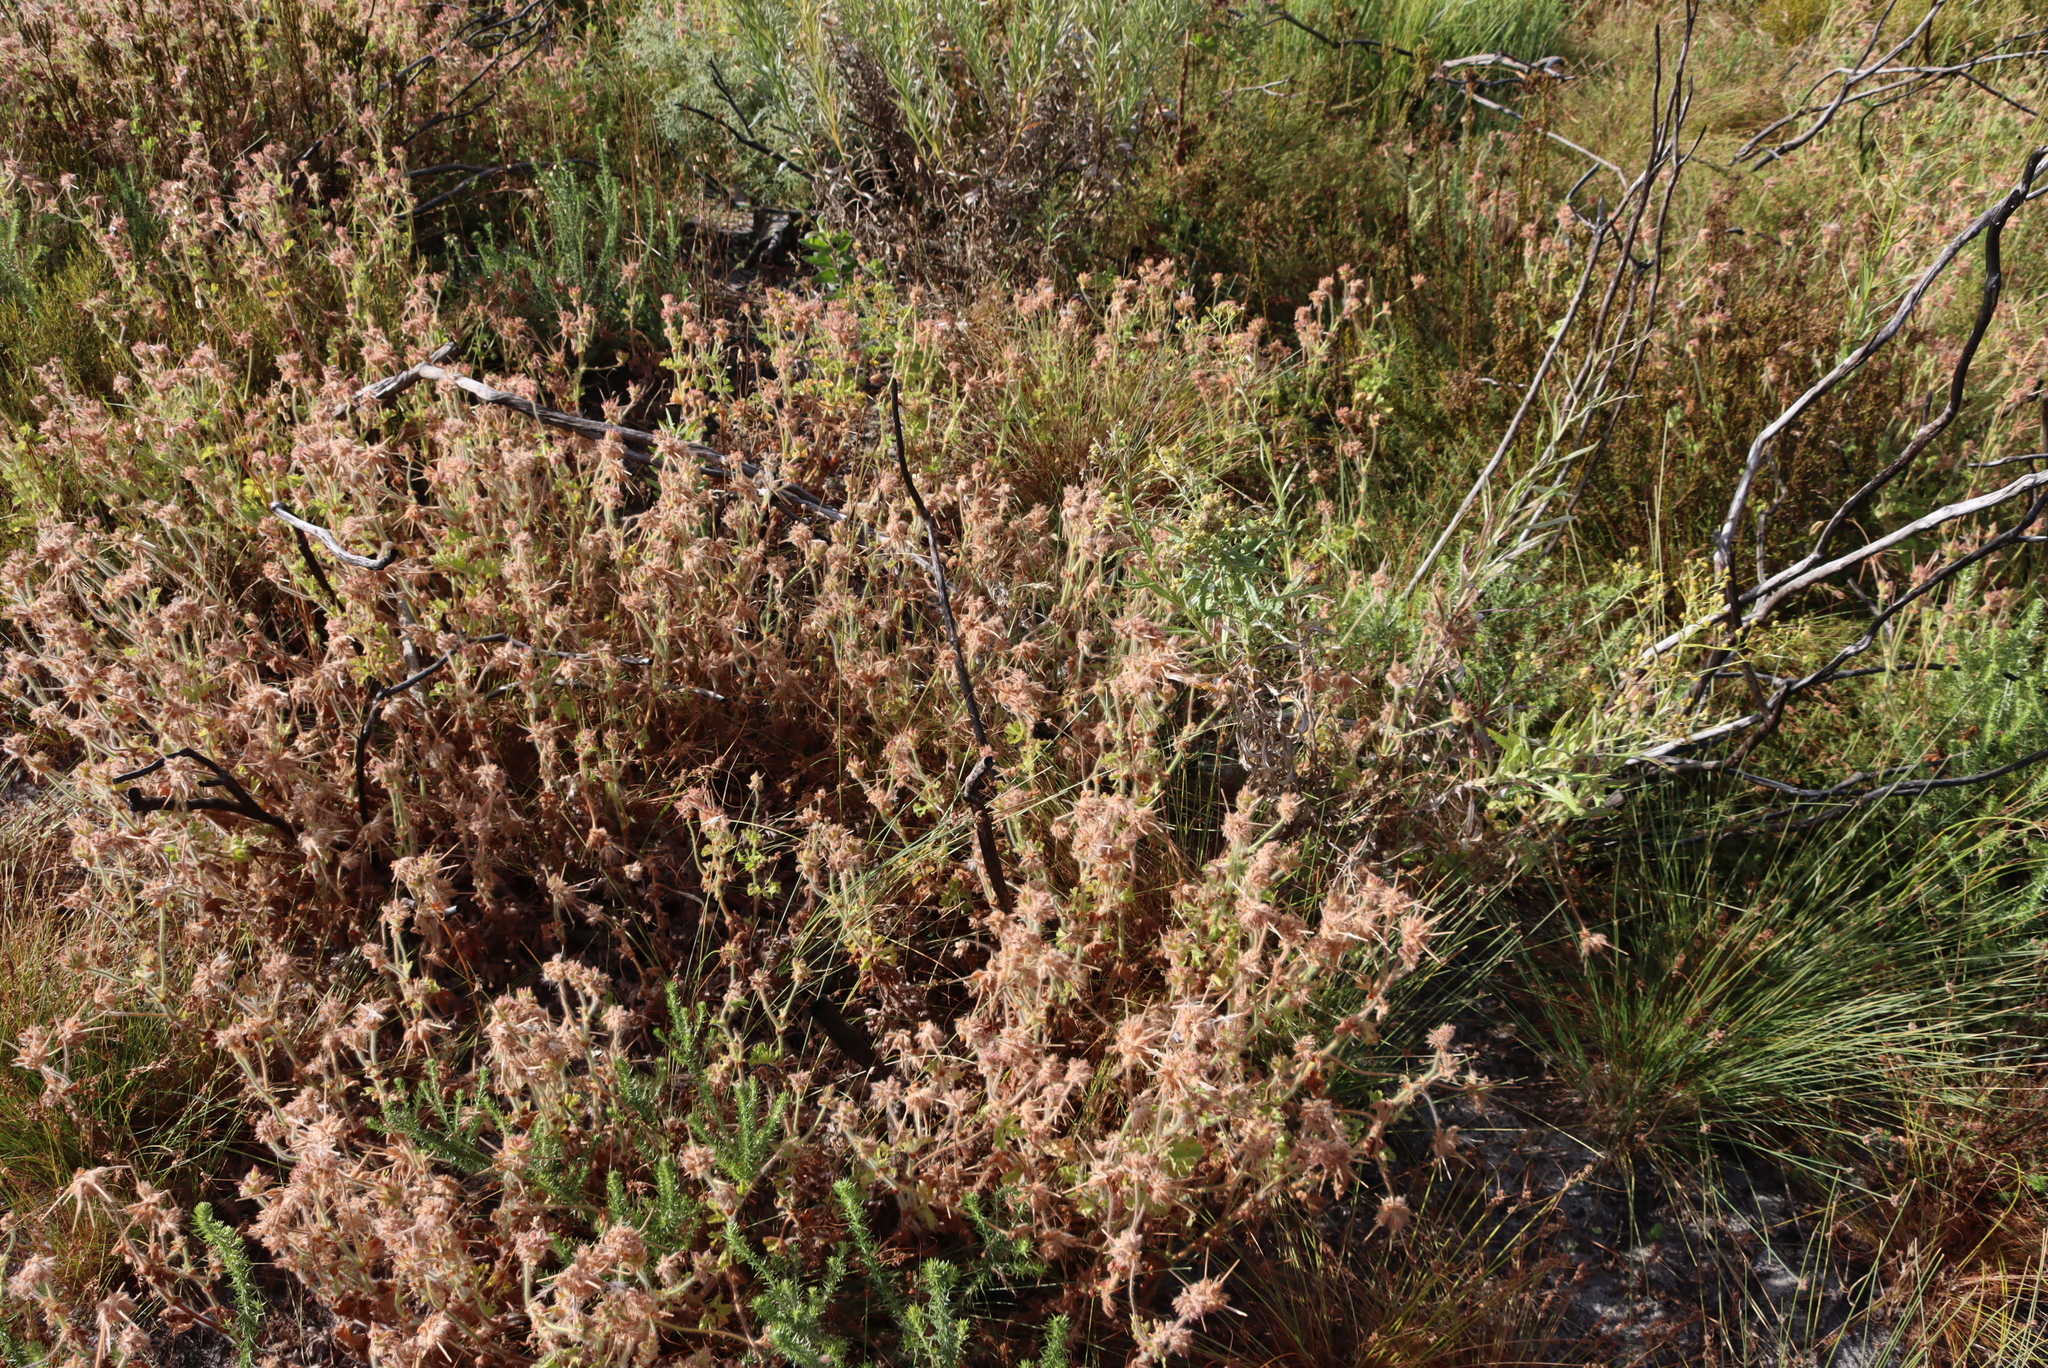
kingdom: Plantae
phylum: Tracheophyta
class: Magnoliopsida
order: Geraniales
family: Geraniaceae
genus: Pelargonium
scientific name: Pelargonium capitatum
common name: Rose scented geranium
